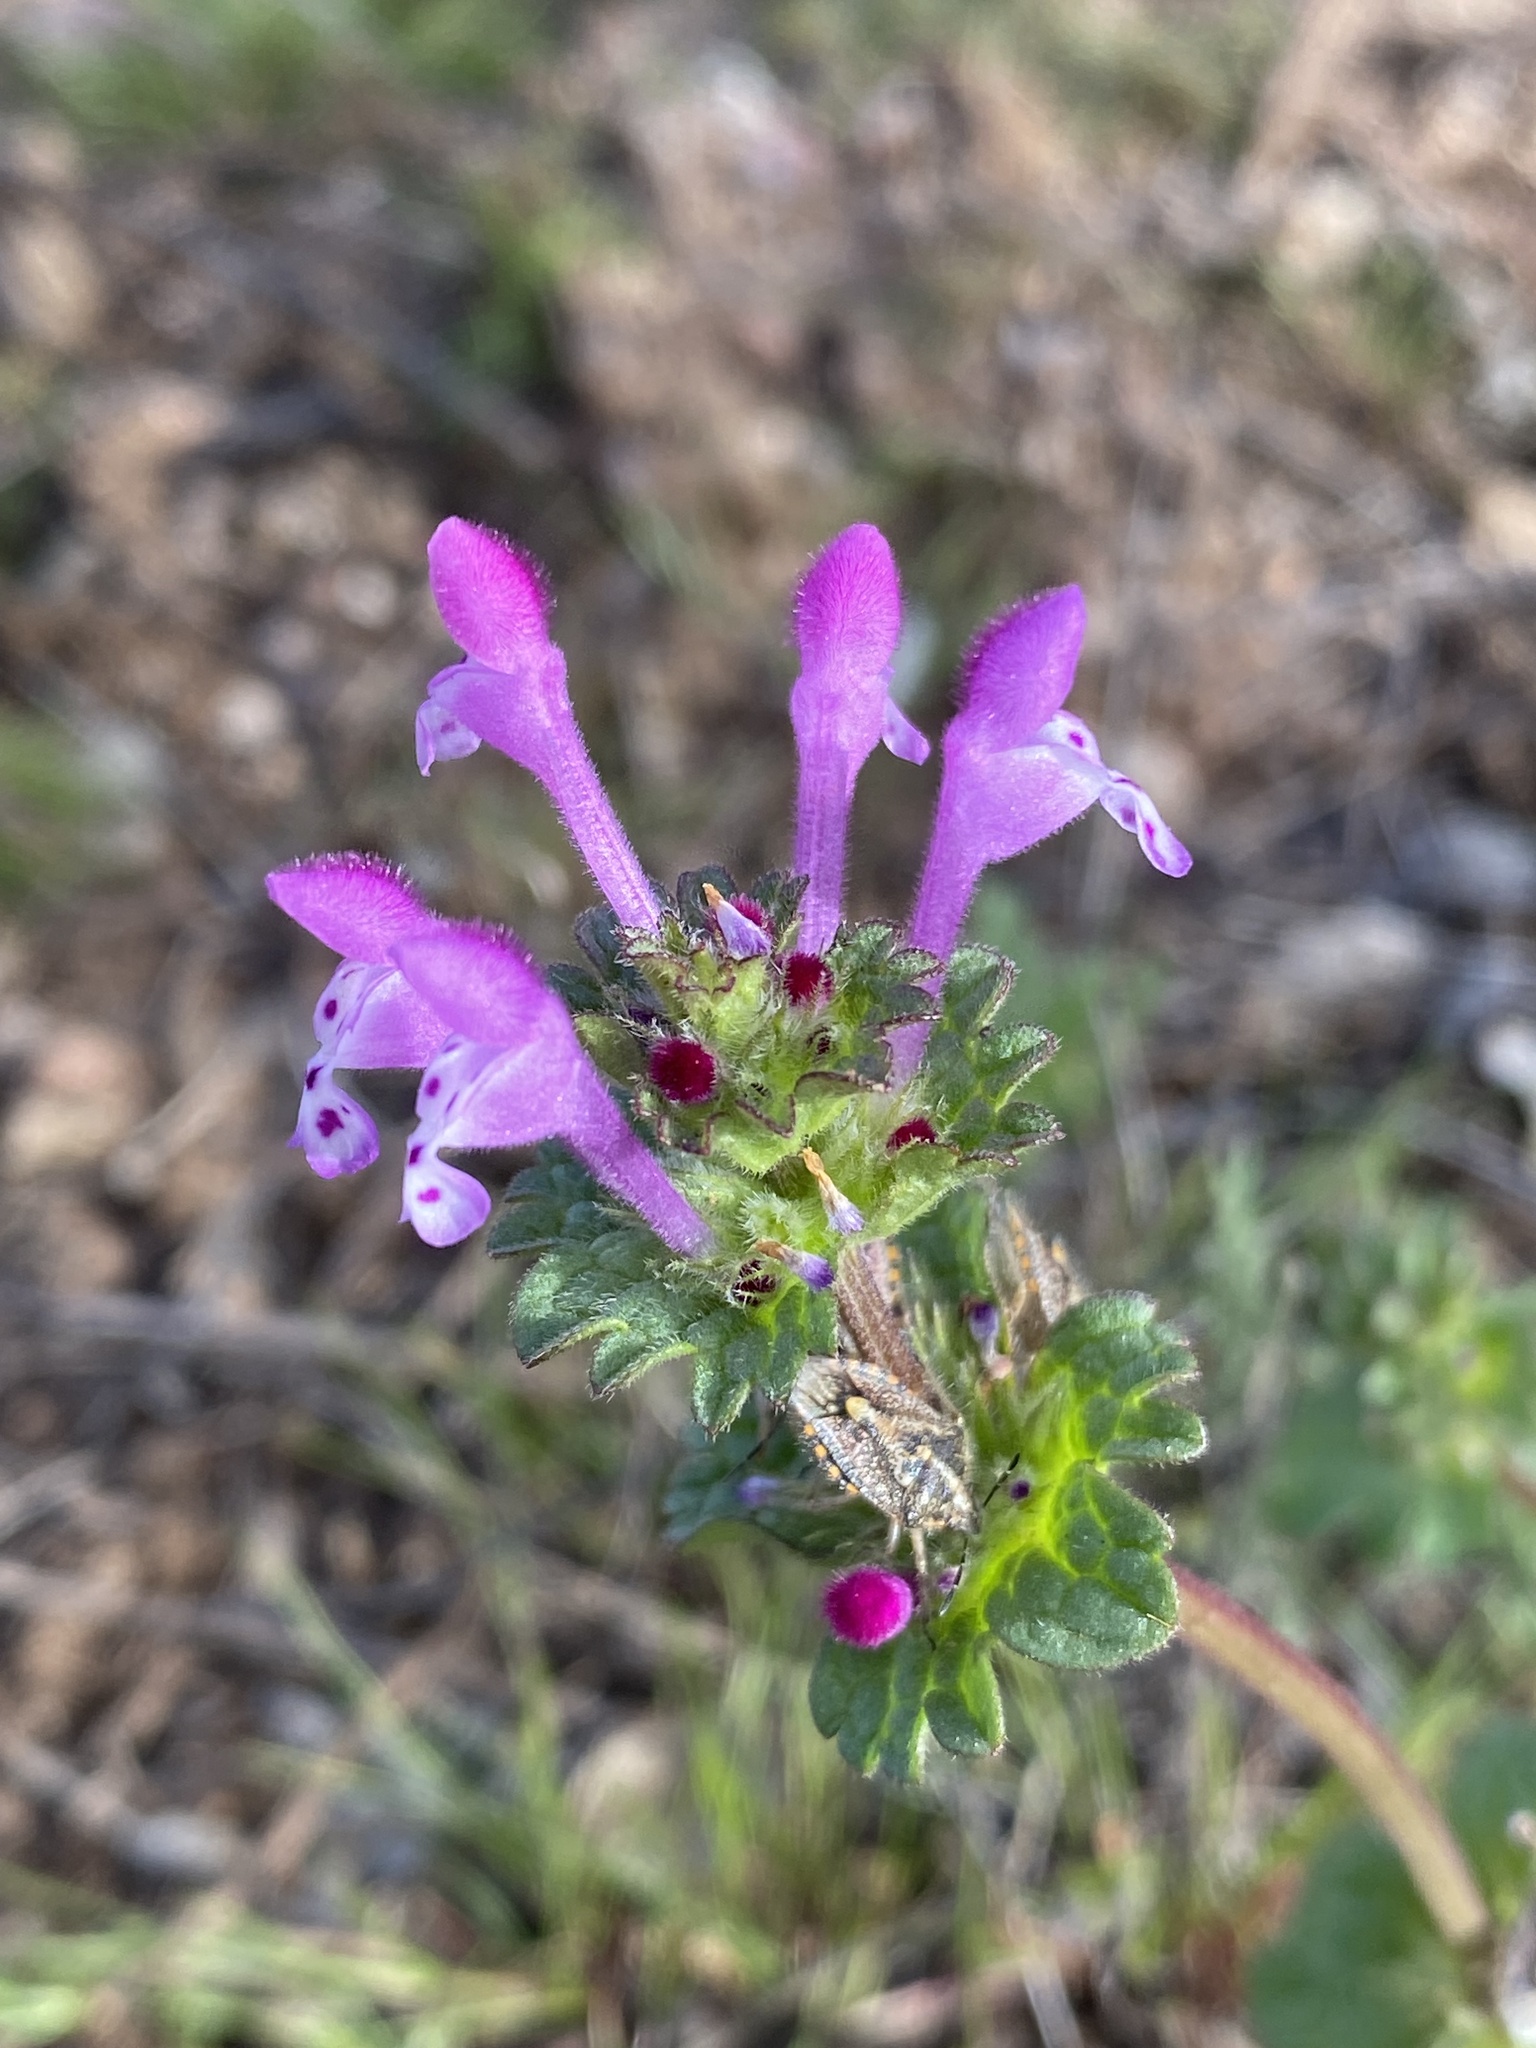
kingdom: Plantae
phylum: Tracheophyta
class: Magnoliopsida
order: Lamiales
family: Lamiaceae
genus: Lamium
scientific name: Lamium amplexicaule
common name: Henbit dead-nettle
